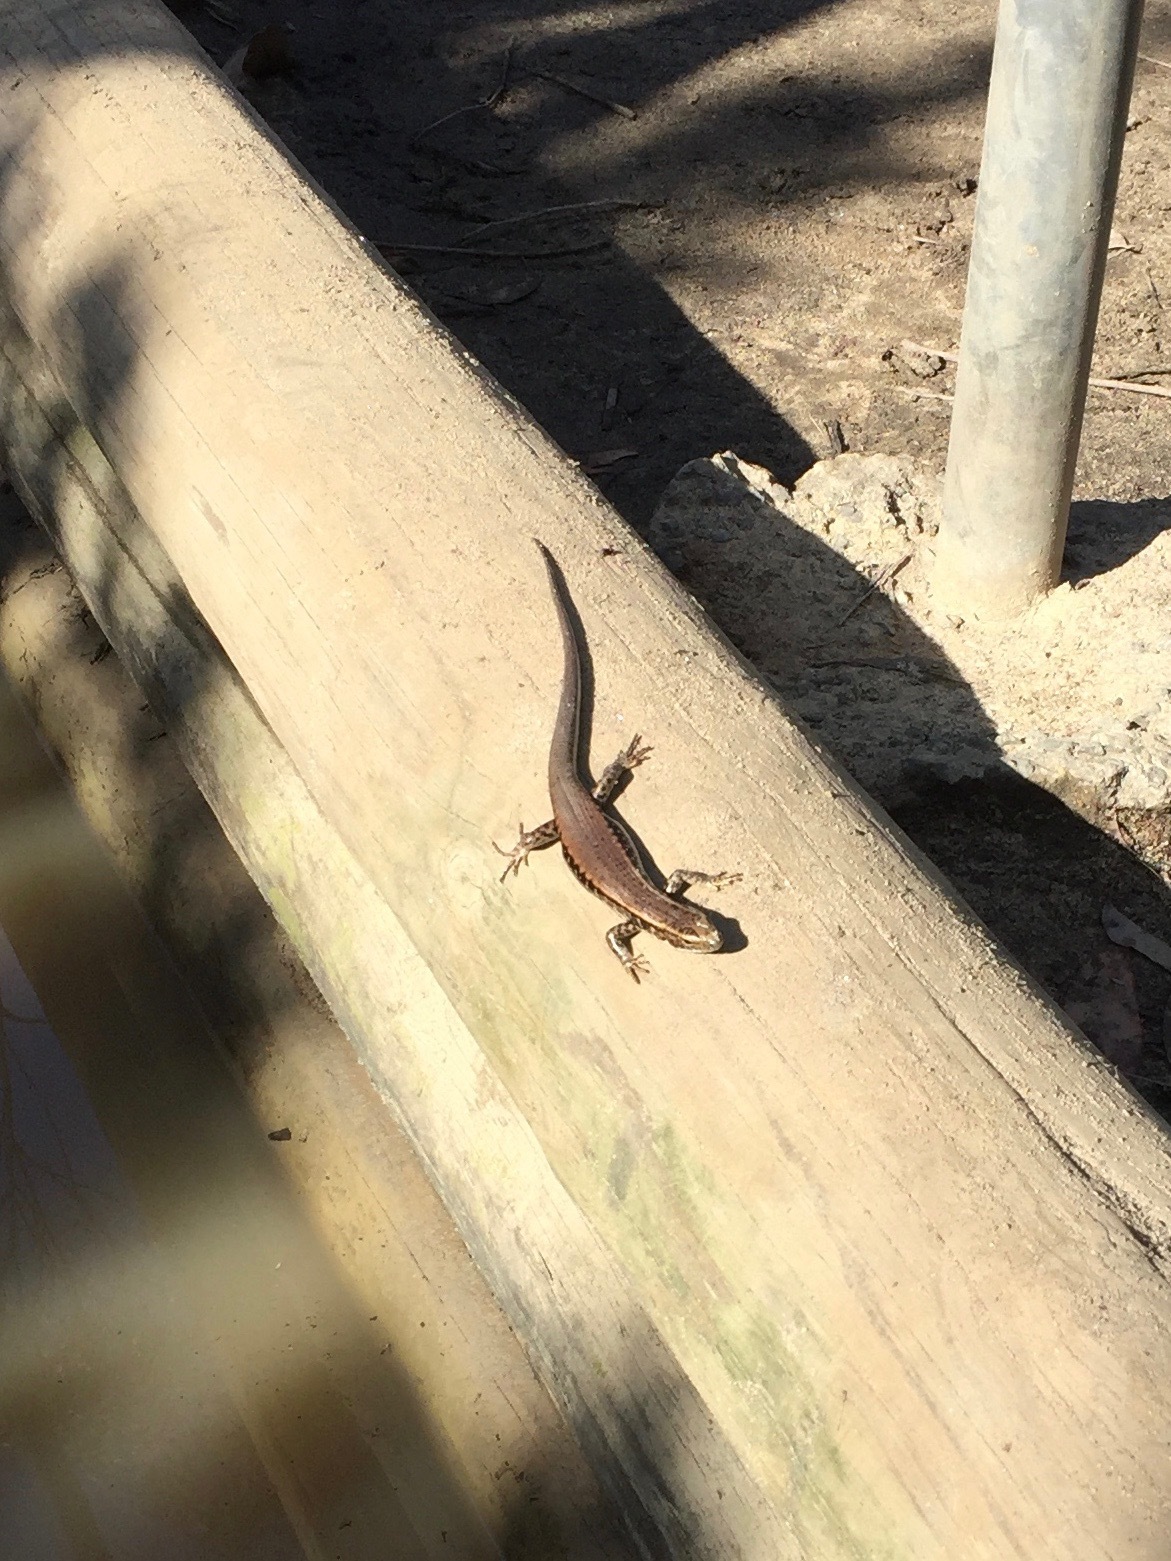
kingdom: Animalia
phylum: Chordata
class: Squamata
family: Scincidae
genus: Eulamprus
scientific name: Eulamprus quoyii
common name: Eastern water skink
